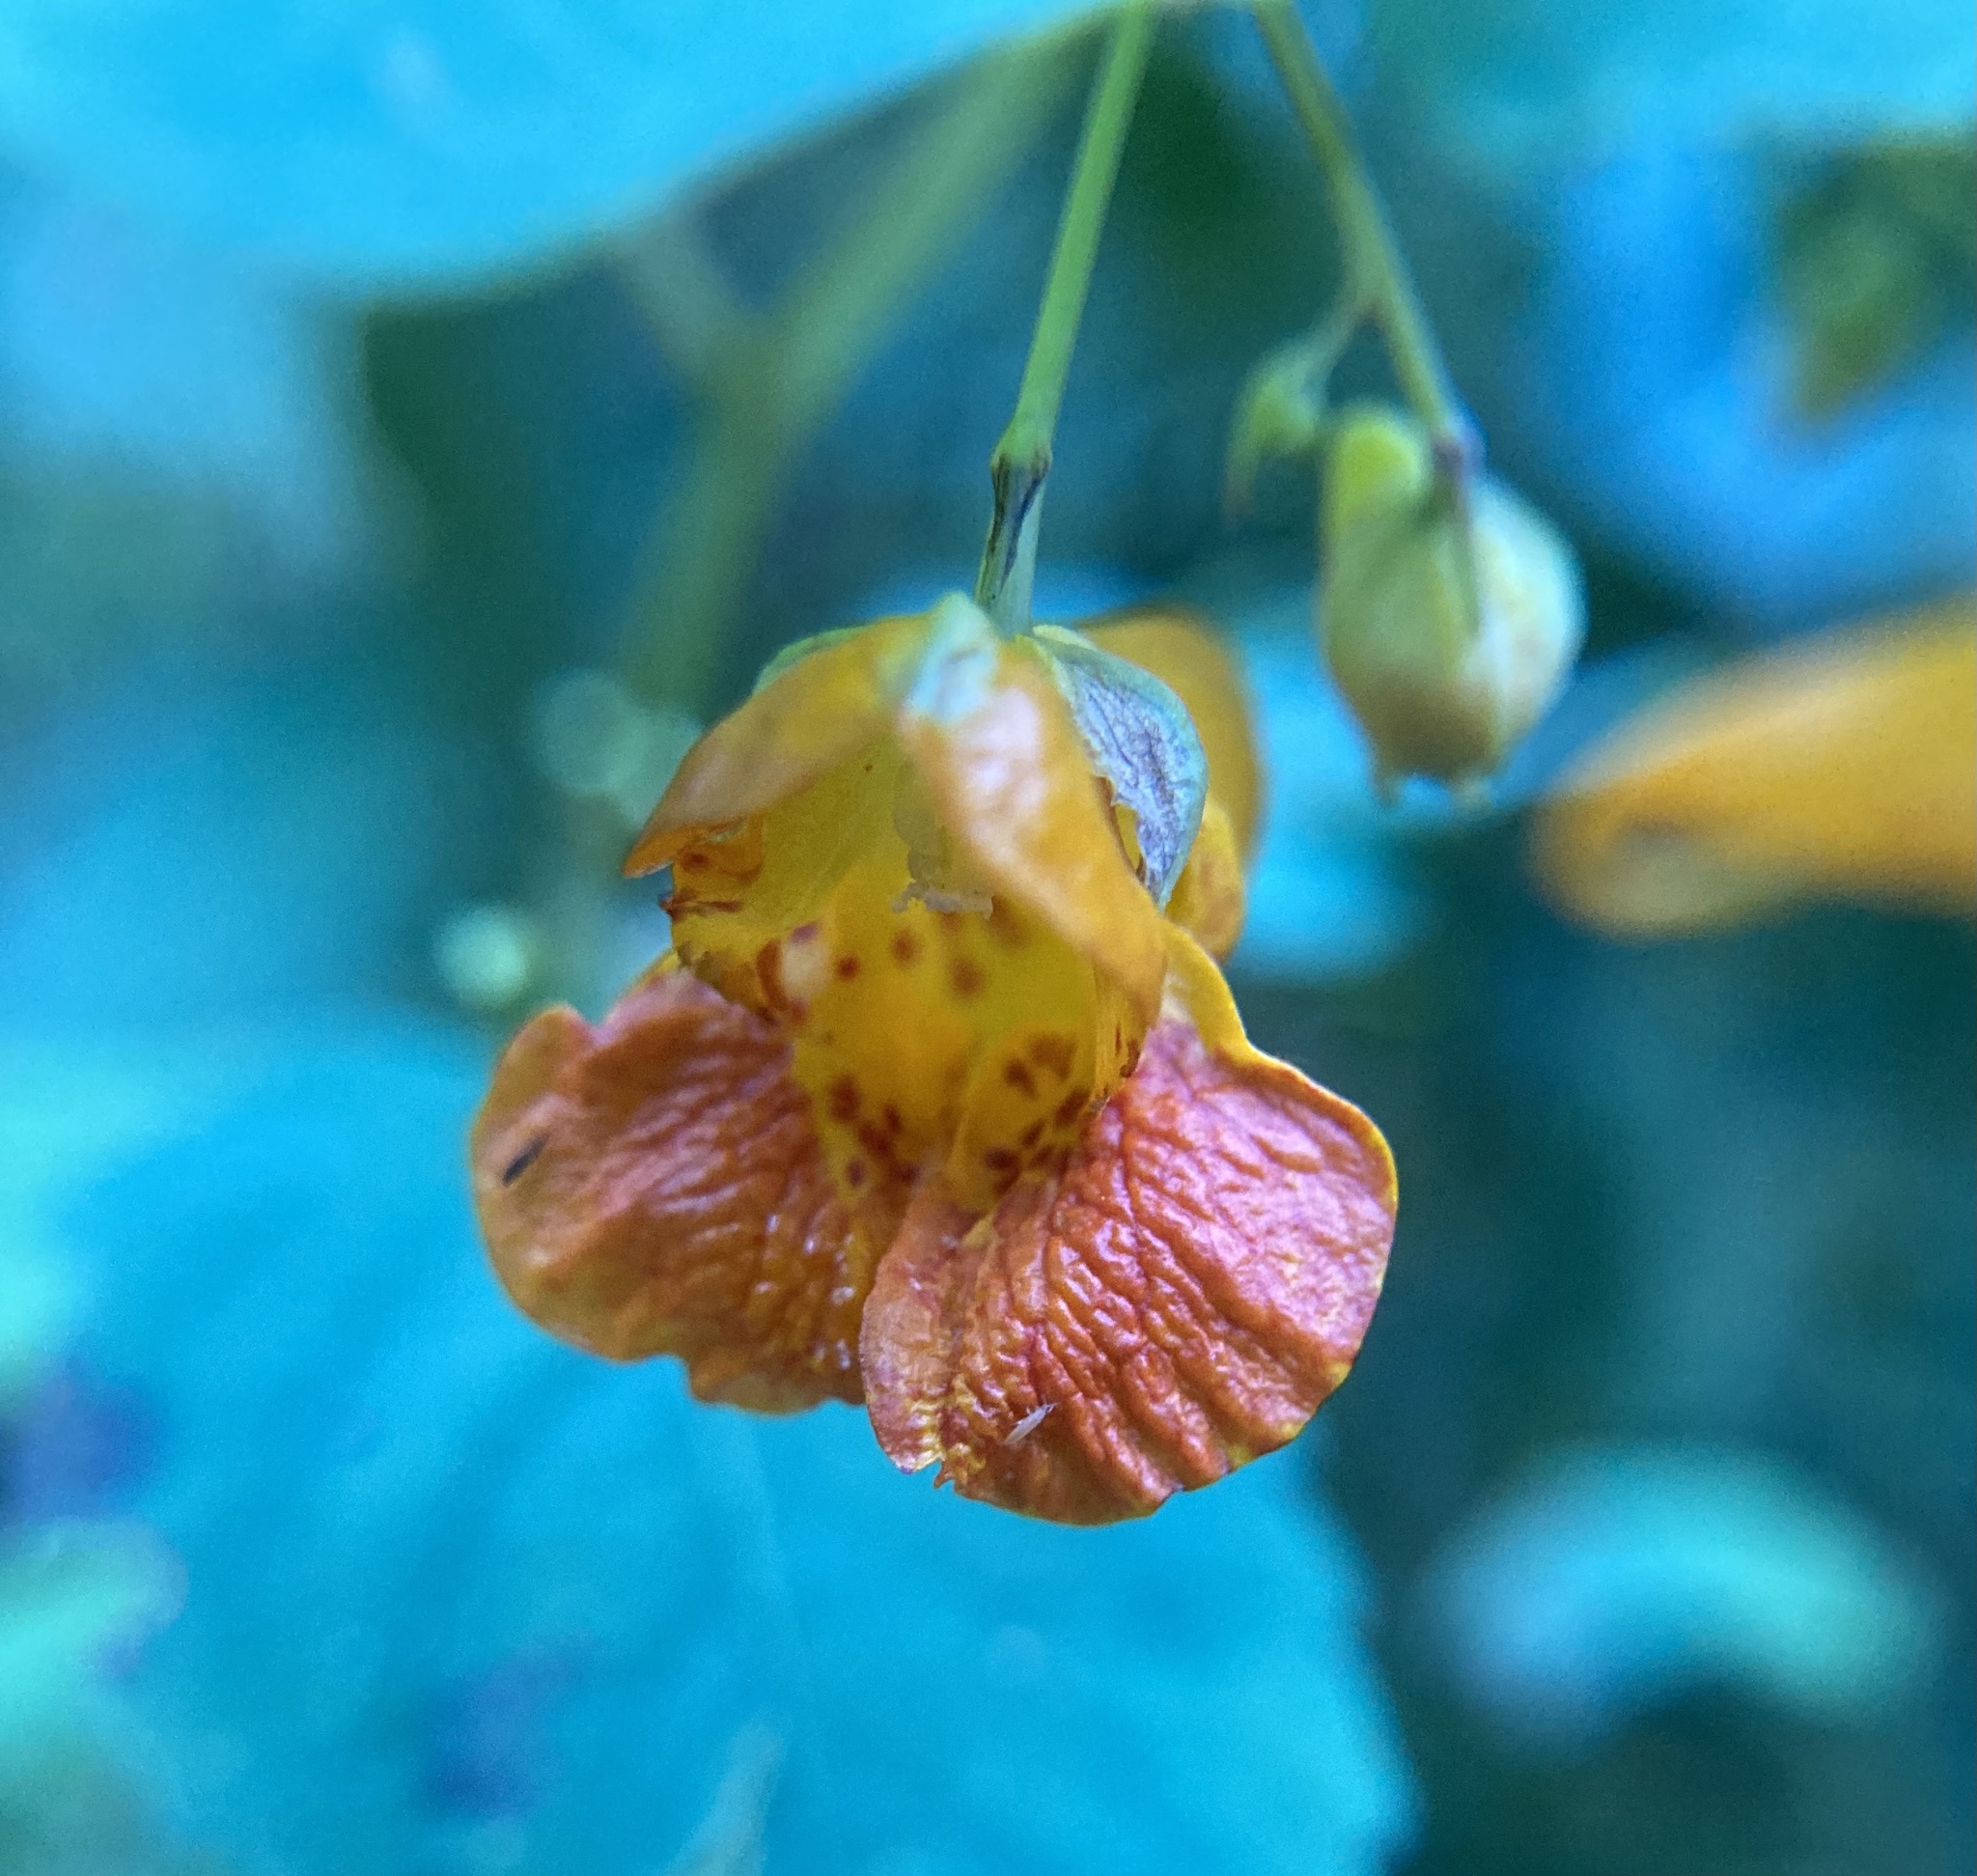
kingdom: Plantae
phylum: Tracheophyta
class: Magnoliopsida
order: Ericales
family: Balsaminaceae
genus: Impatiens
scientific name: Impatiens capensis
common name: Orange balsam
